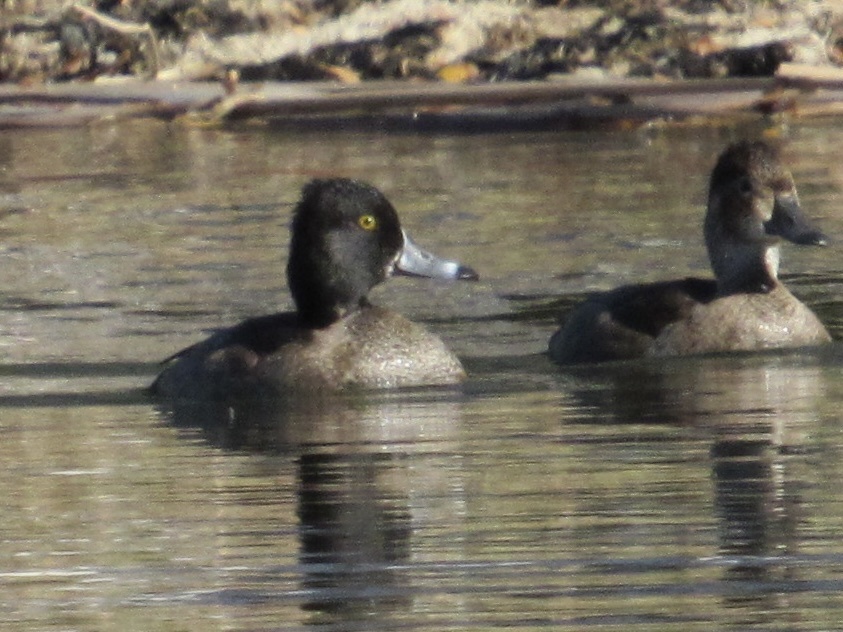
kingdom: Animalia
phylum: Chordata
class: Aves
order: Anseriformes
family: Anatidae
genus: Aythya
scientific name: Aythya collaris
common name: Ring-necked duck
